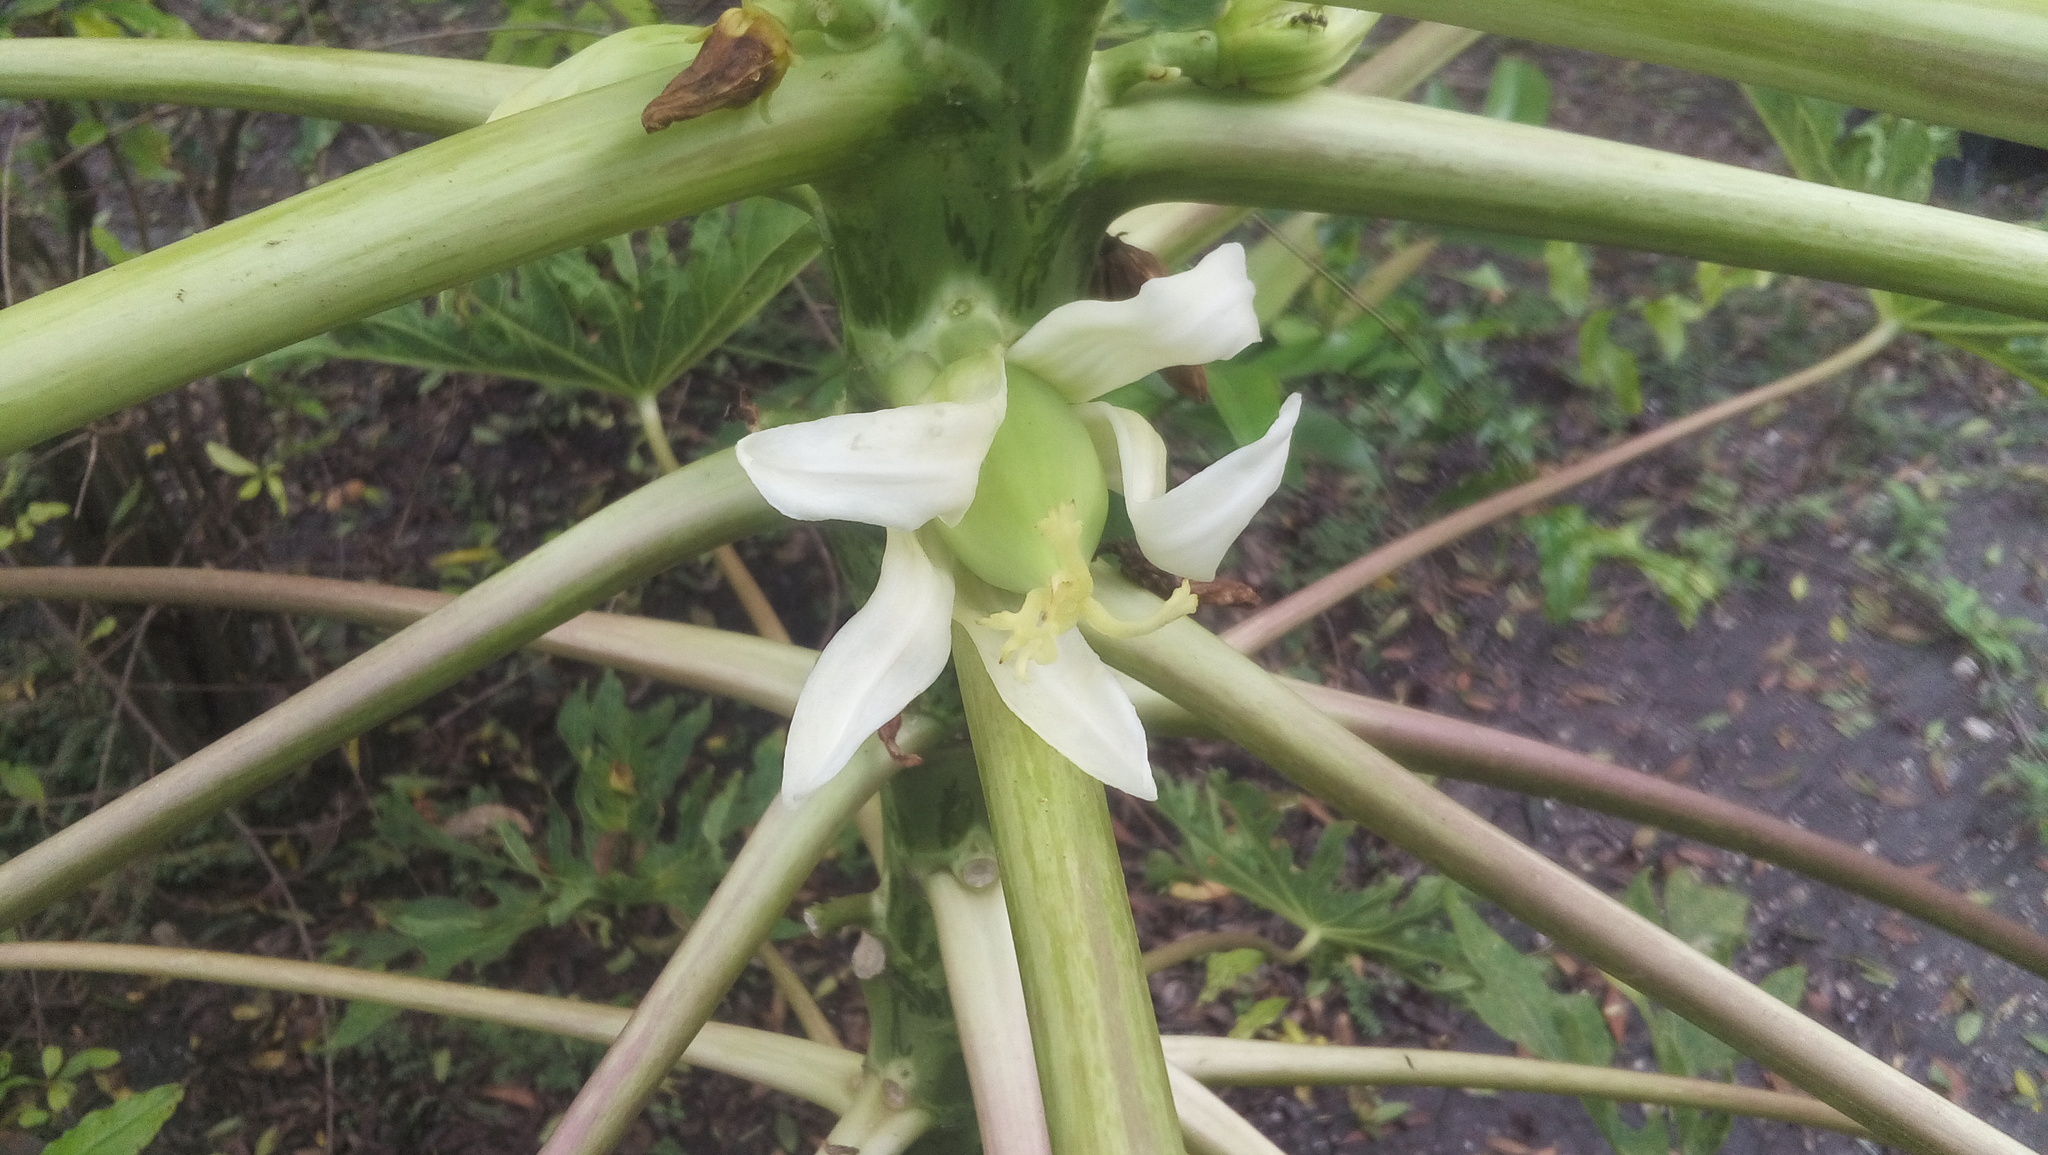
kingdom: Plantae
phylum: Tracheophyta
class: Magnoliopsida
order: Brassicales
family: Caricaceae
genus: Carica
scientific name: Carica papaya
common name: Papaya
